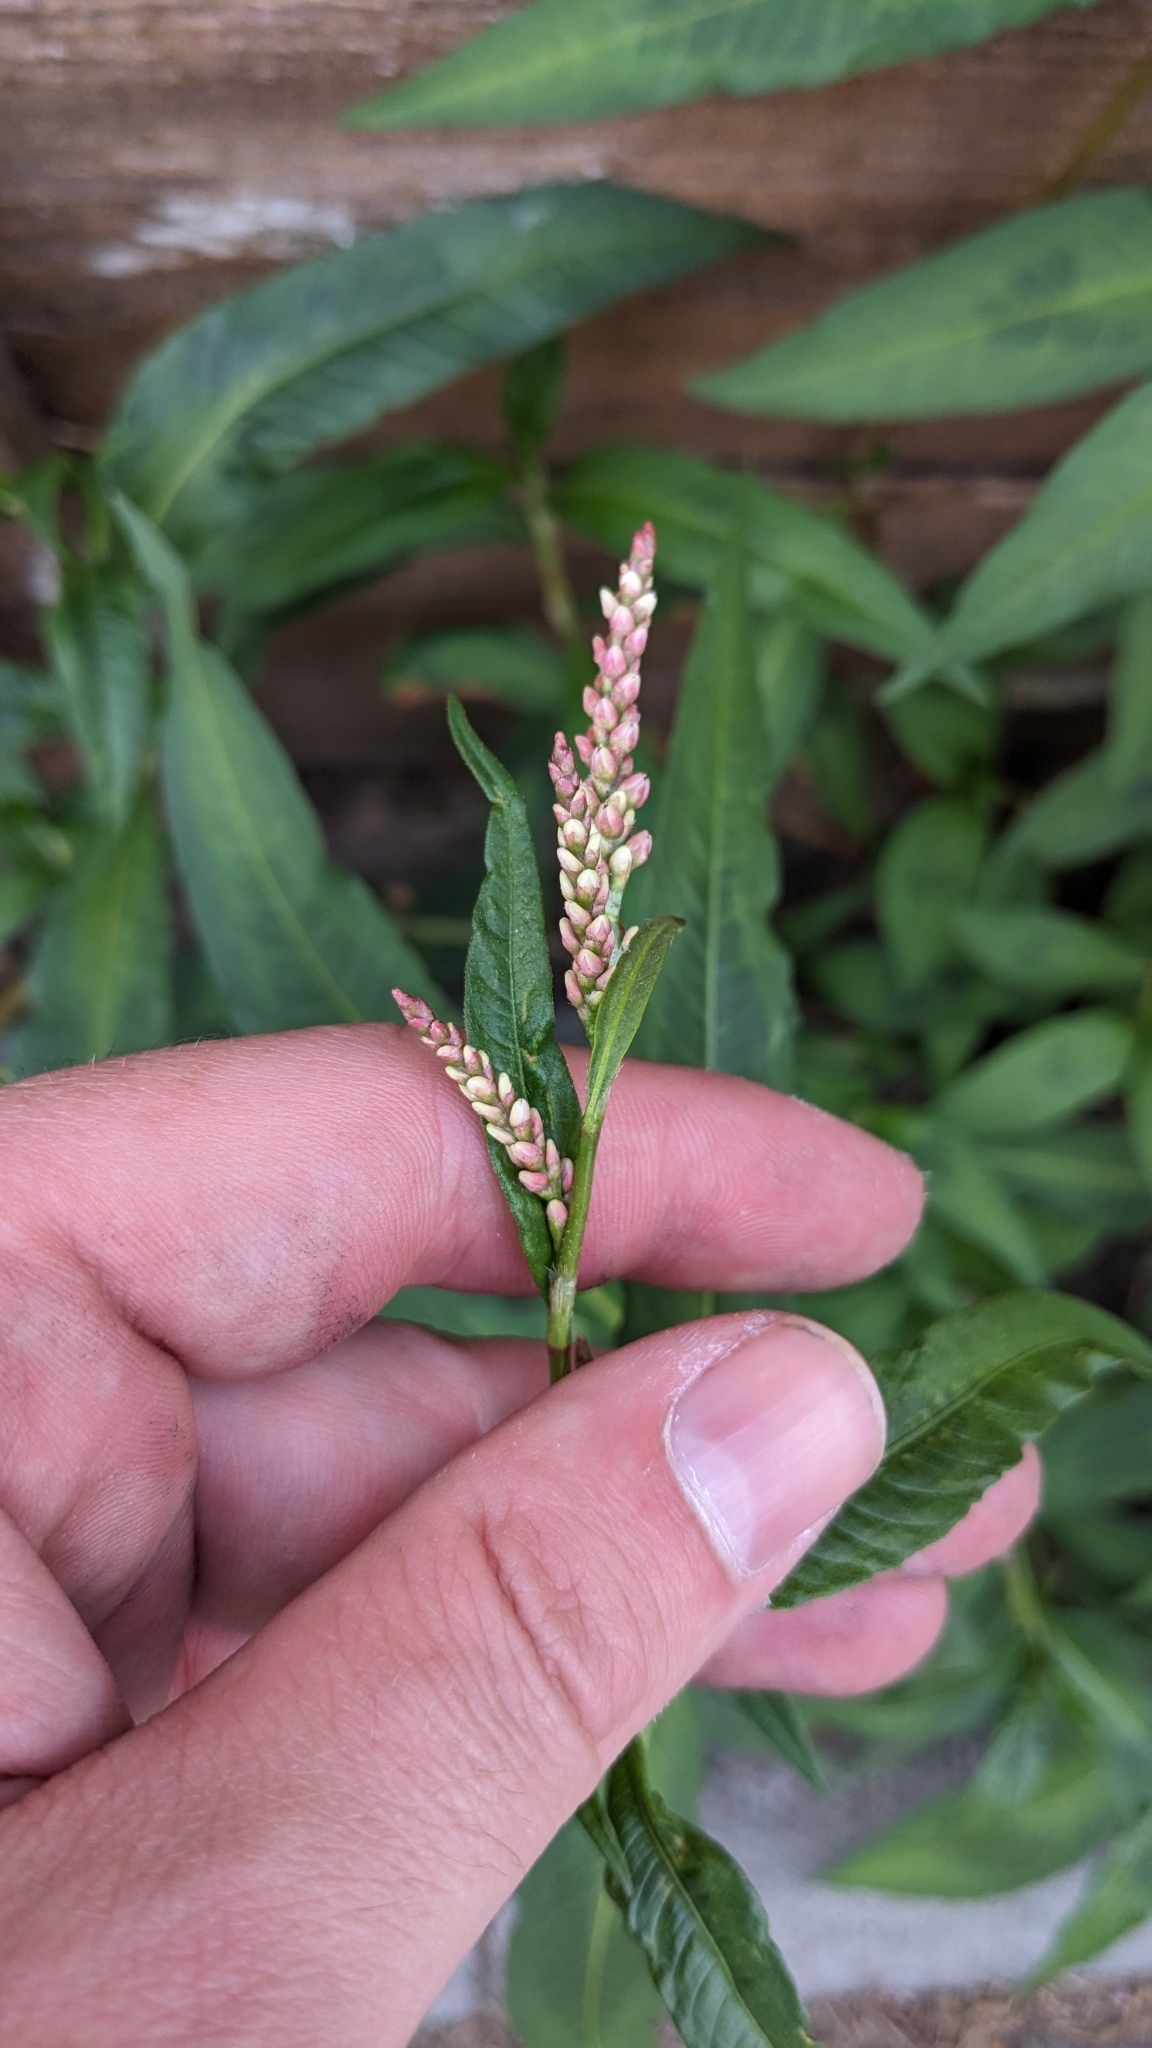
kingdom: Plantae
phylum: Tracheophyta
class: Magnoliopsida
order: Caryophyllales
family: Polygonaceae
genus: Persicaria
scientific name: Persicaria maculosa
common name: Redshank
